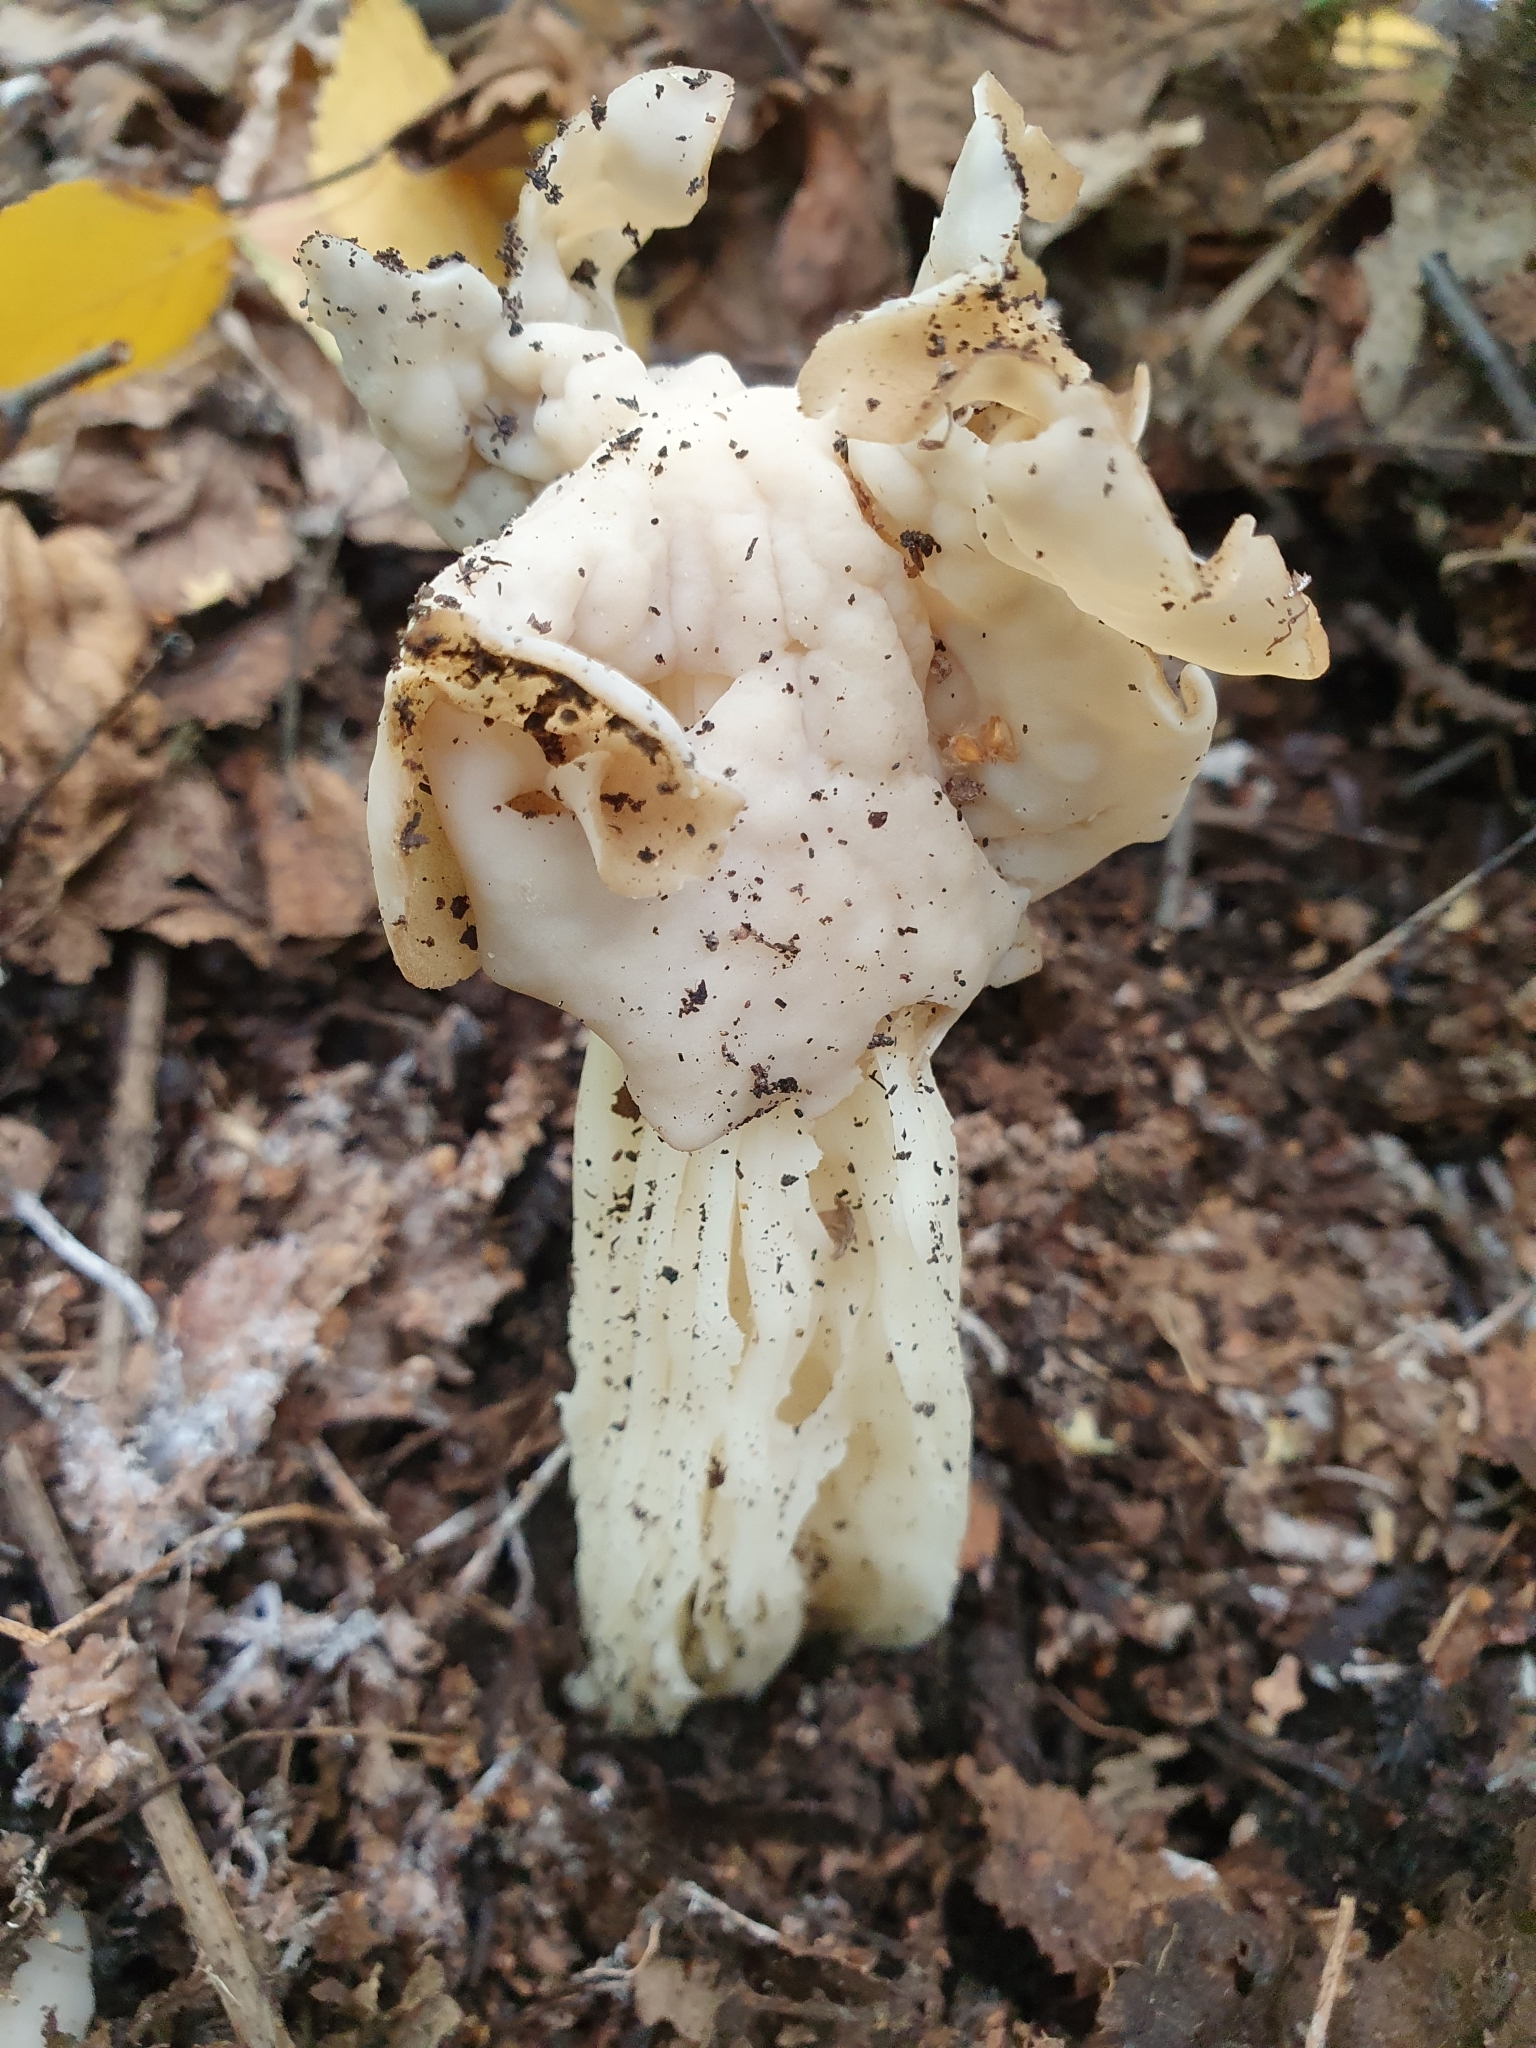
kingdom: Fungi
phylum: Ascomycota
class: Pezizomycetes
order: Pezizales
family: Helvellaceae
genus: Helvella
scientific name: Helvella crispa
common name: White saddle
